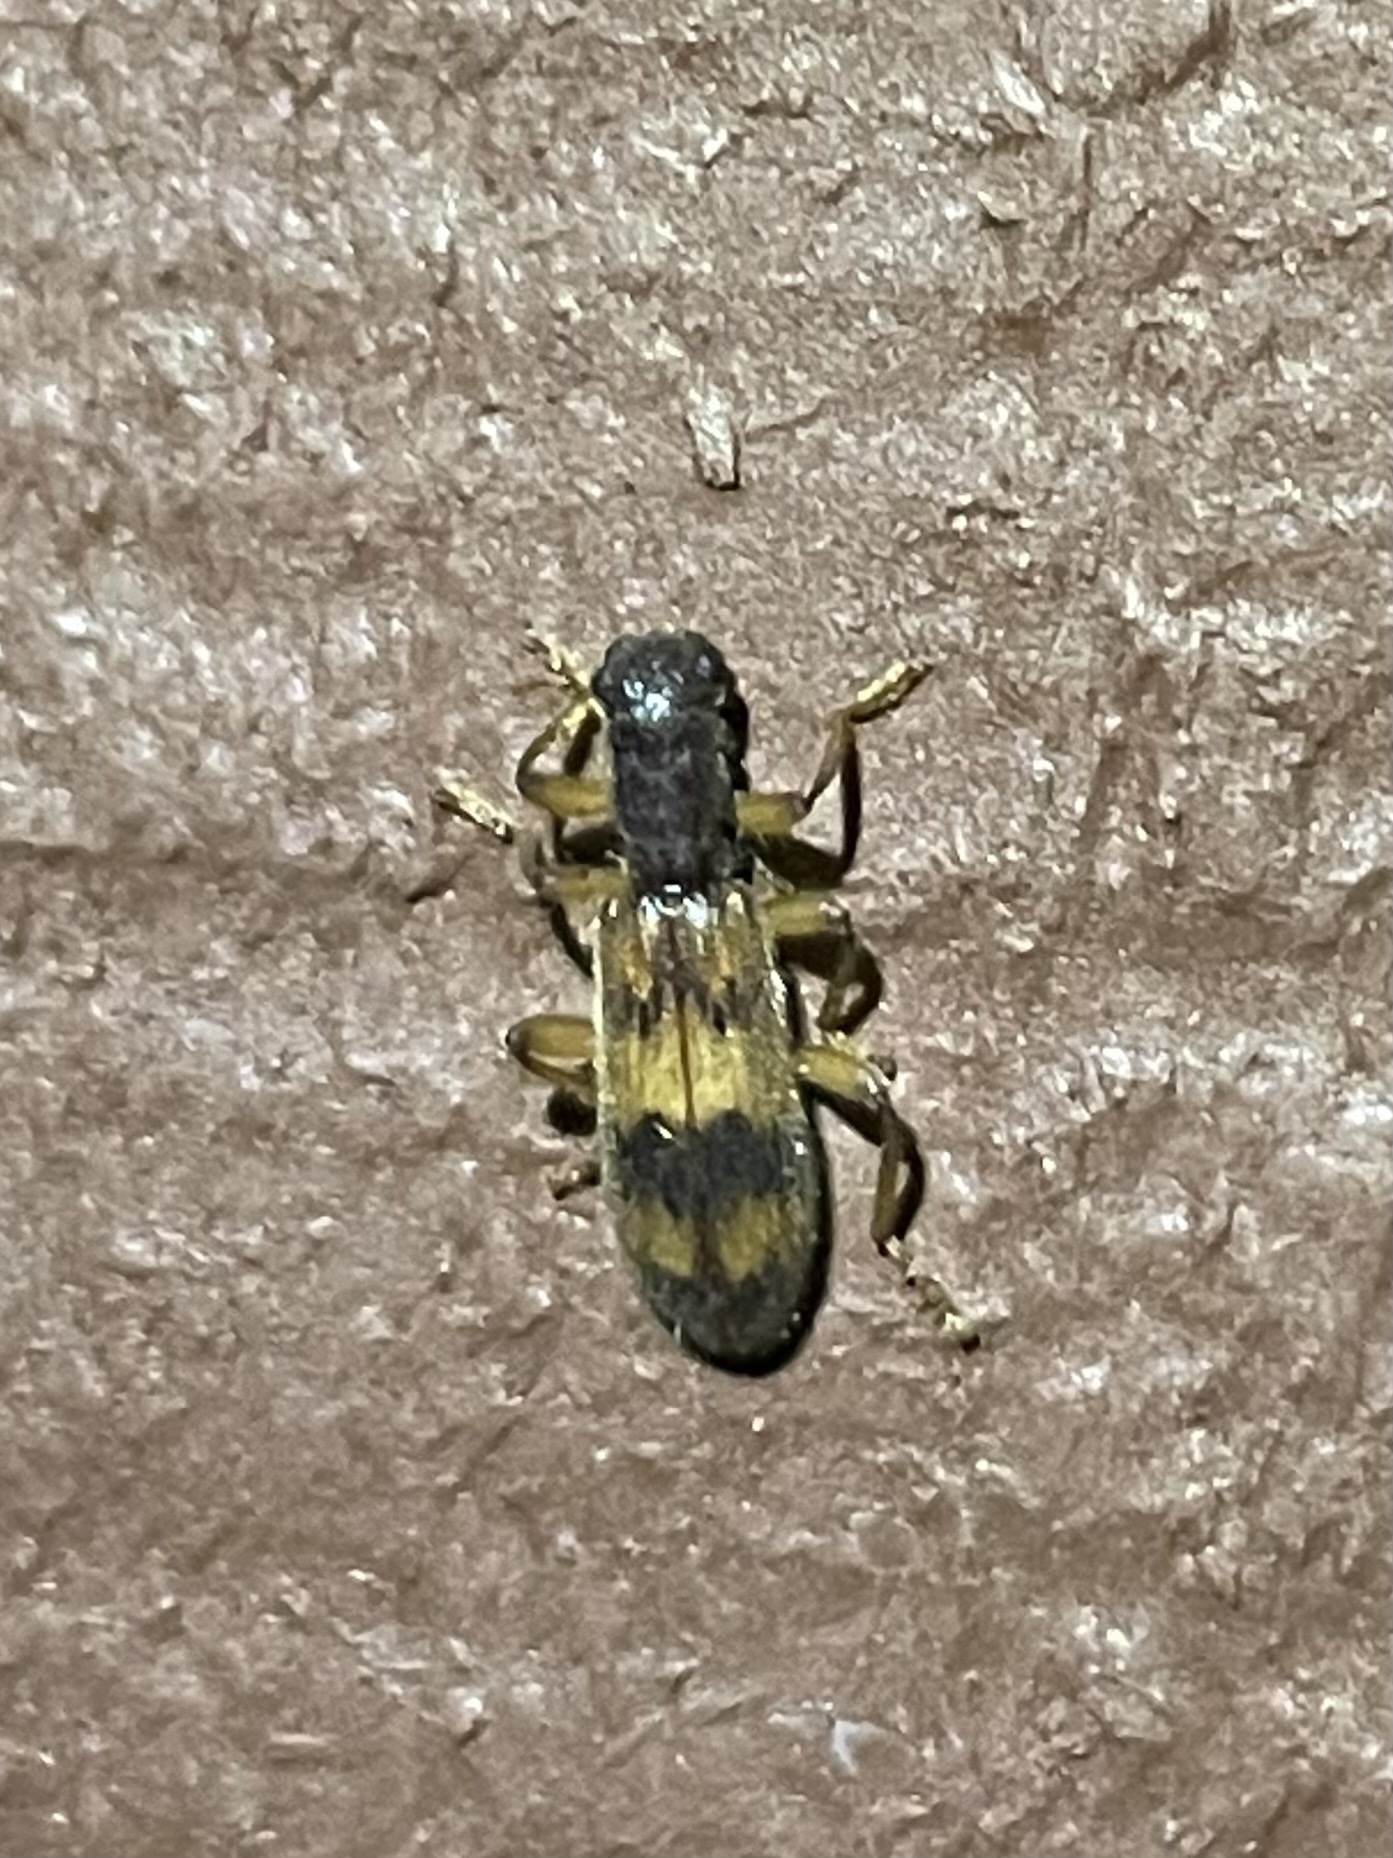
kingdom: Animalia
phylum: Arthropoda
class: Insecta
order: Coleoptera
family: Cleridae
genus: Cymatodera
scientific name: Cymatodera undulata
